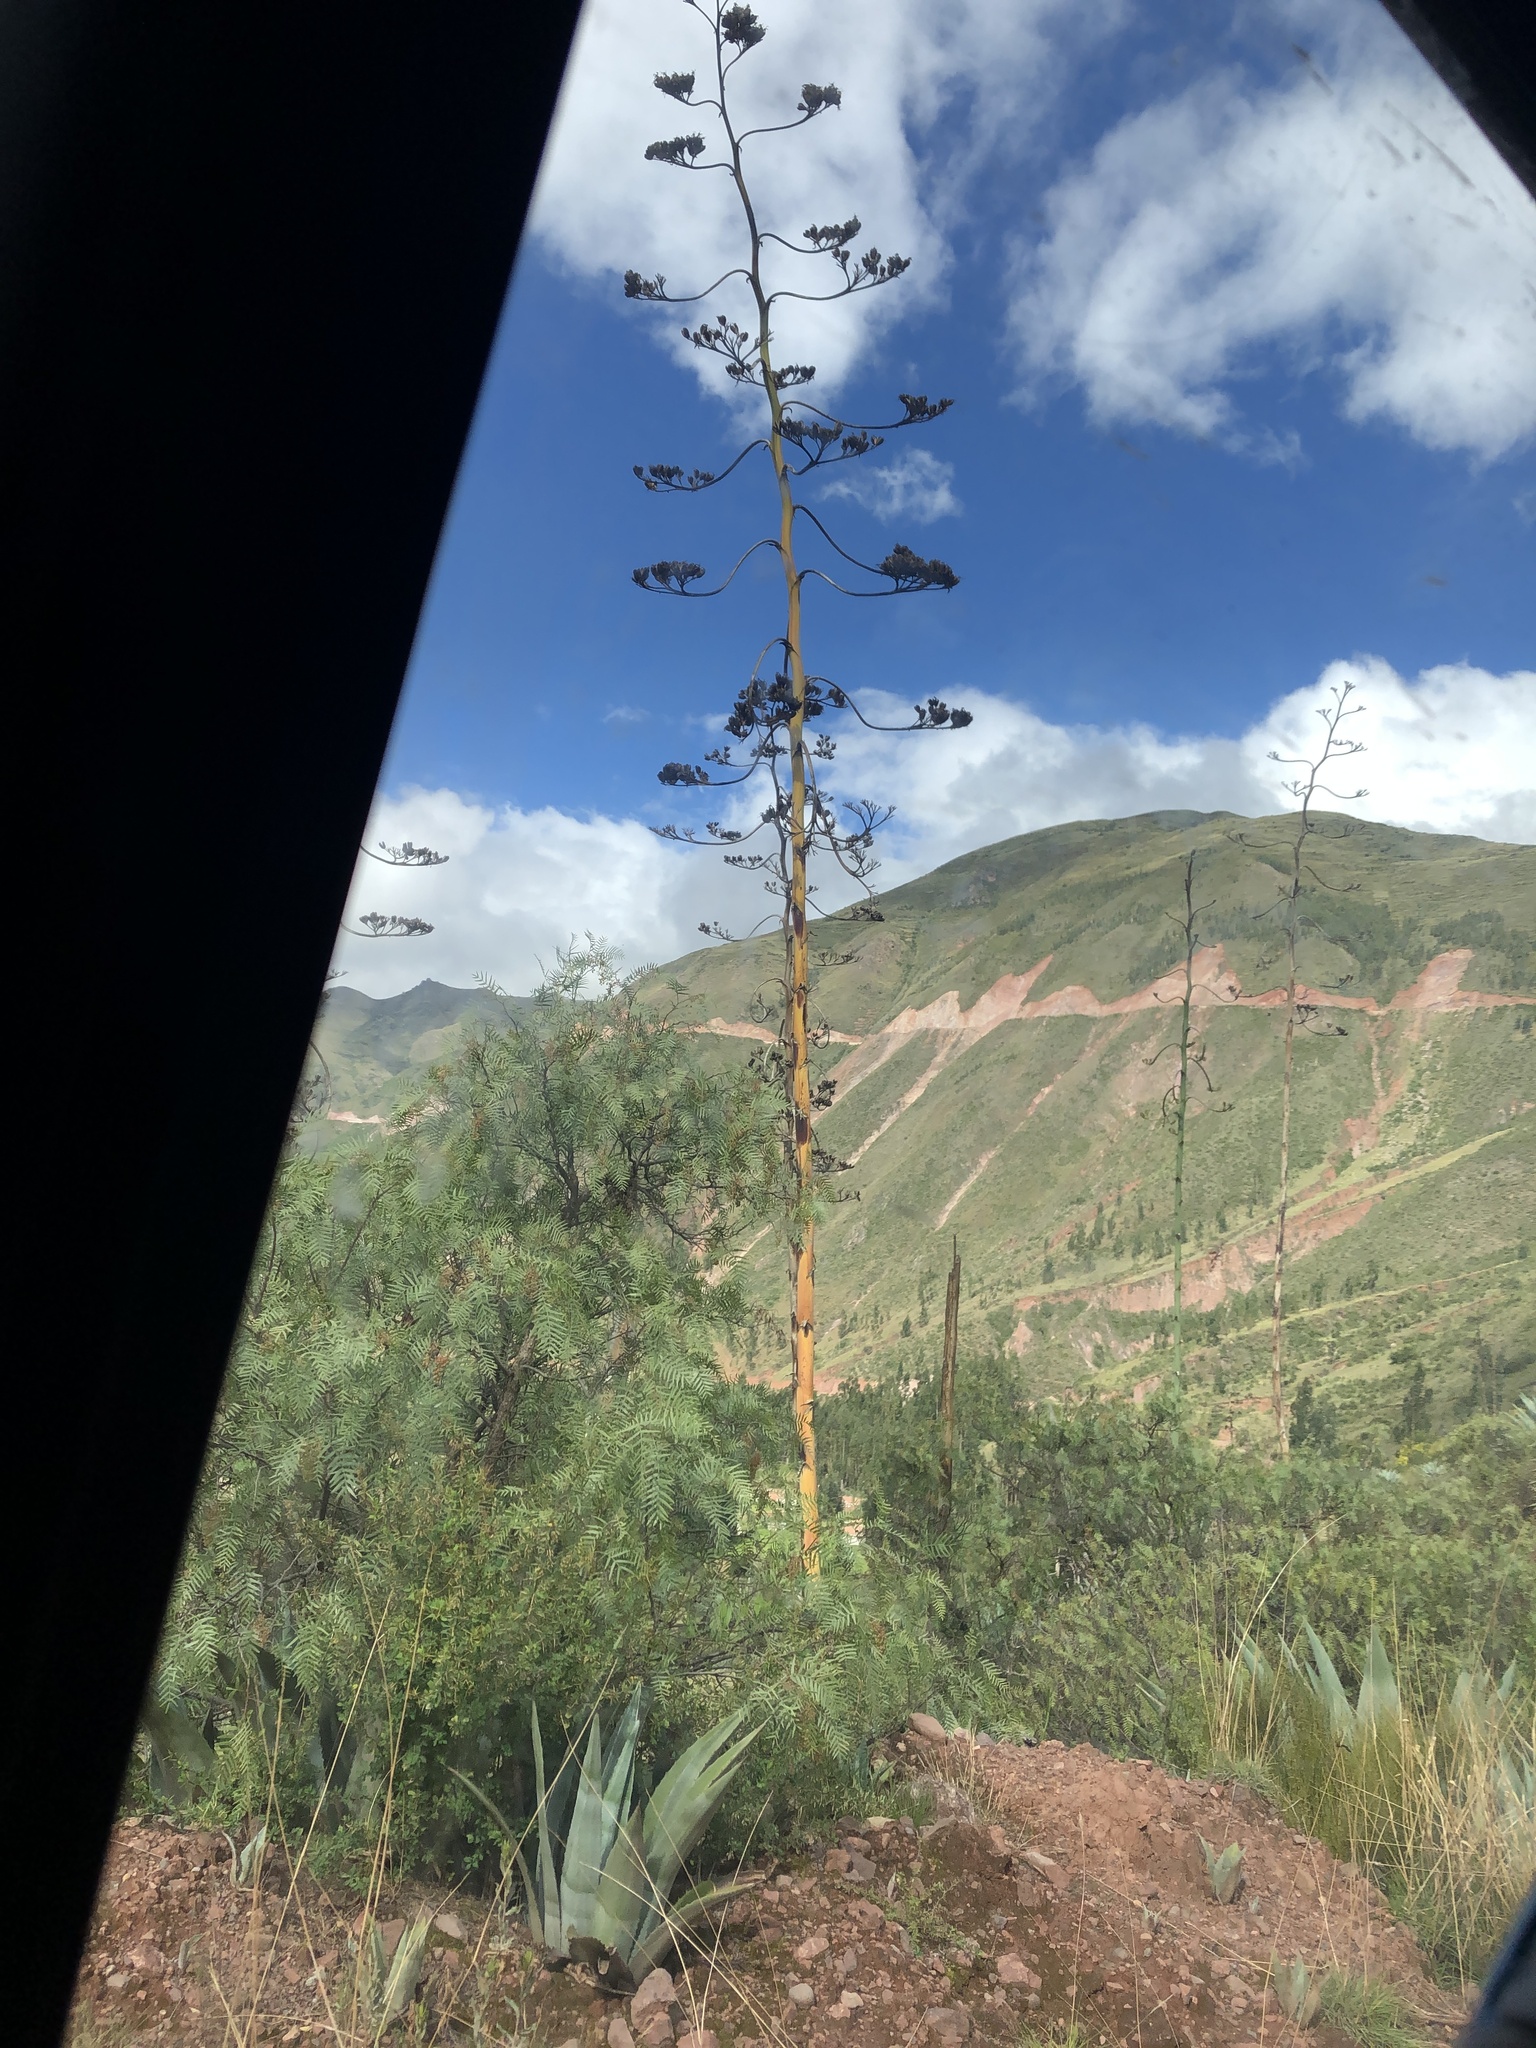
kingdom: Plantae
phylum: Tracheophyta
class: Liliopsida
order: Asparagales
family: Asparagaceae
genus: Agave
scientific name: Agave americana
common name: Centuryplant
